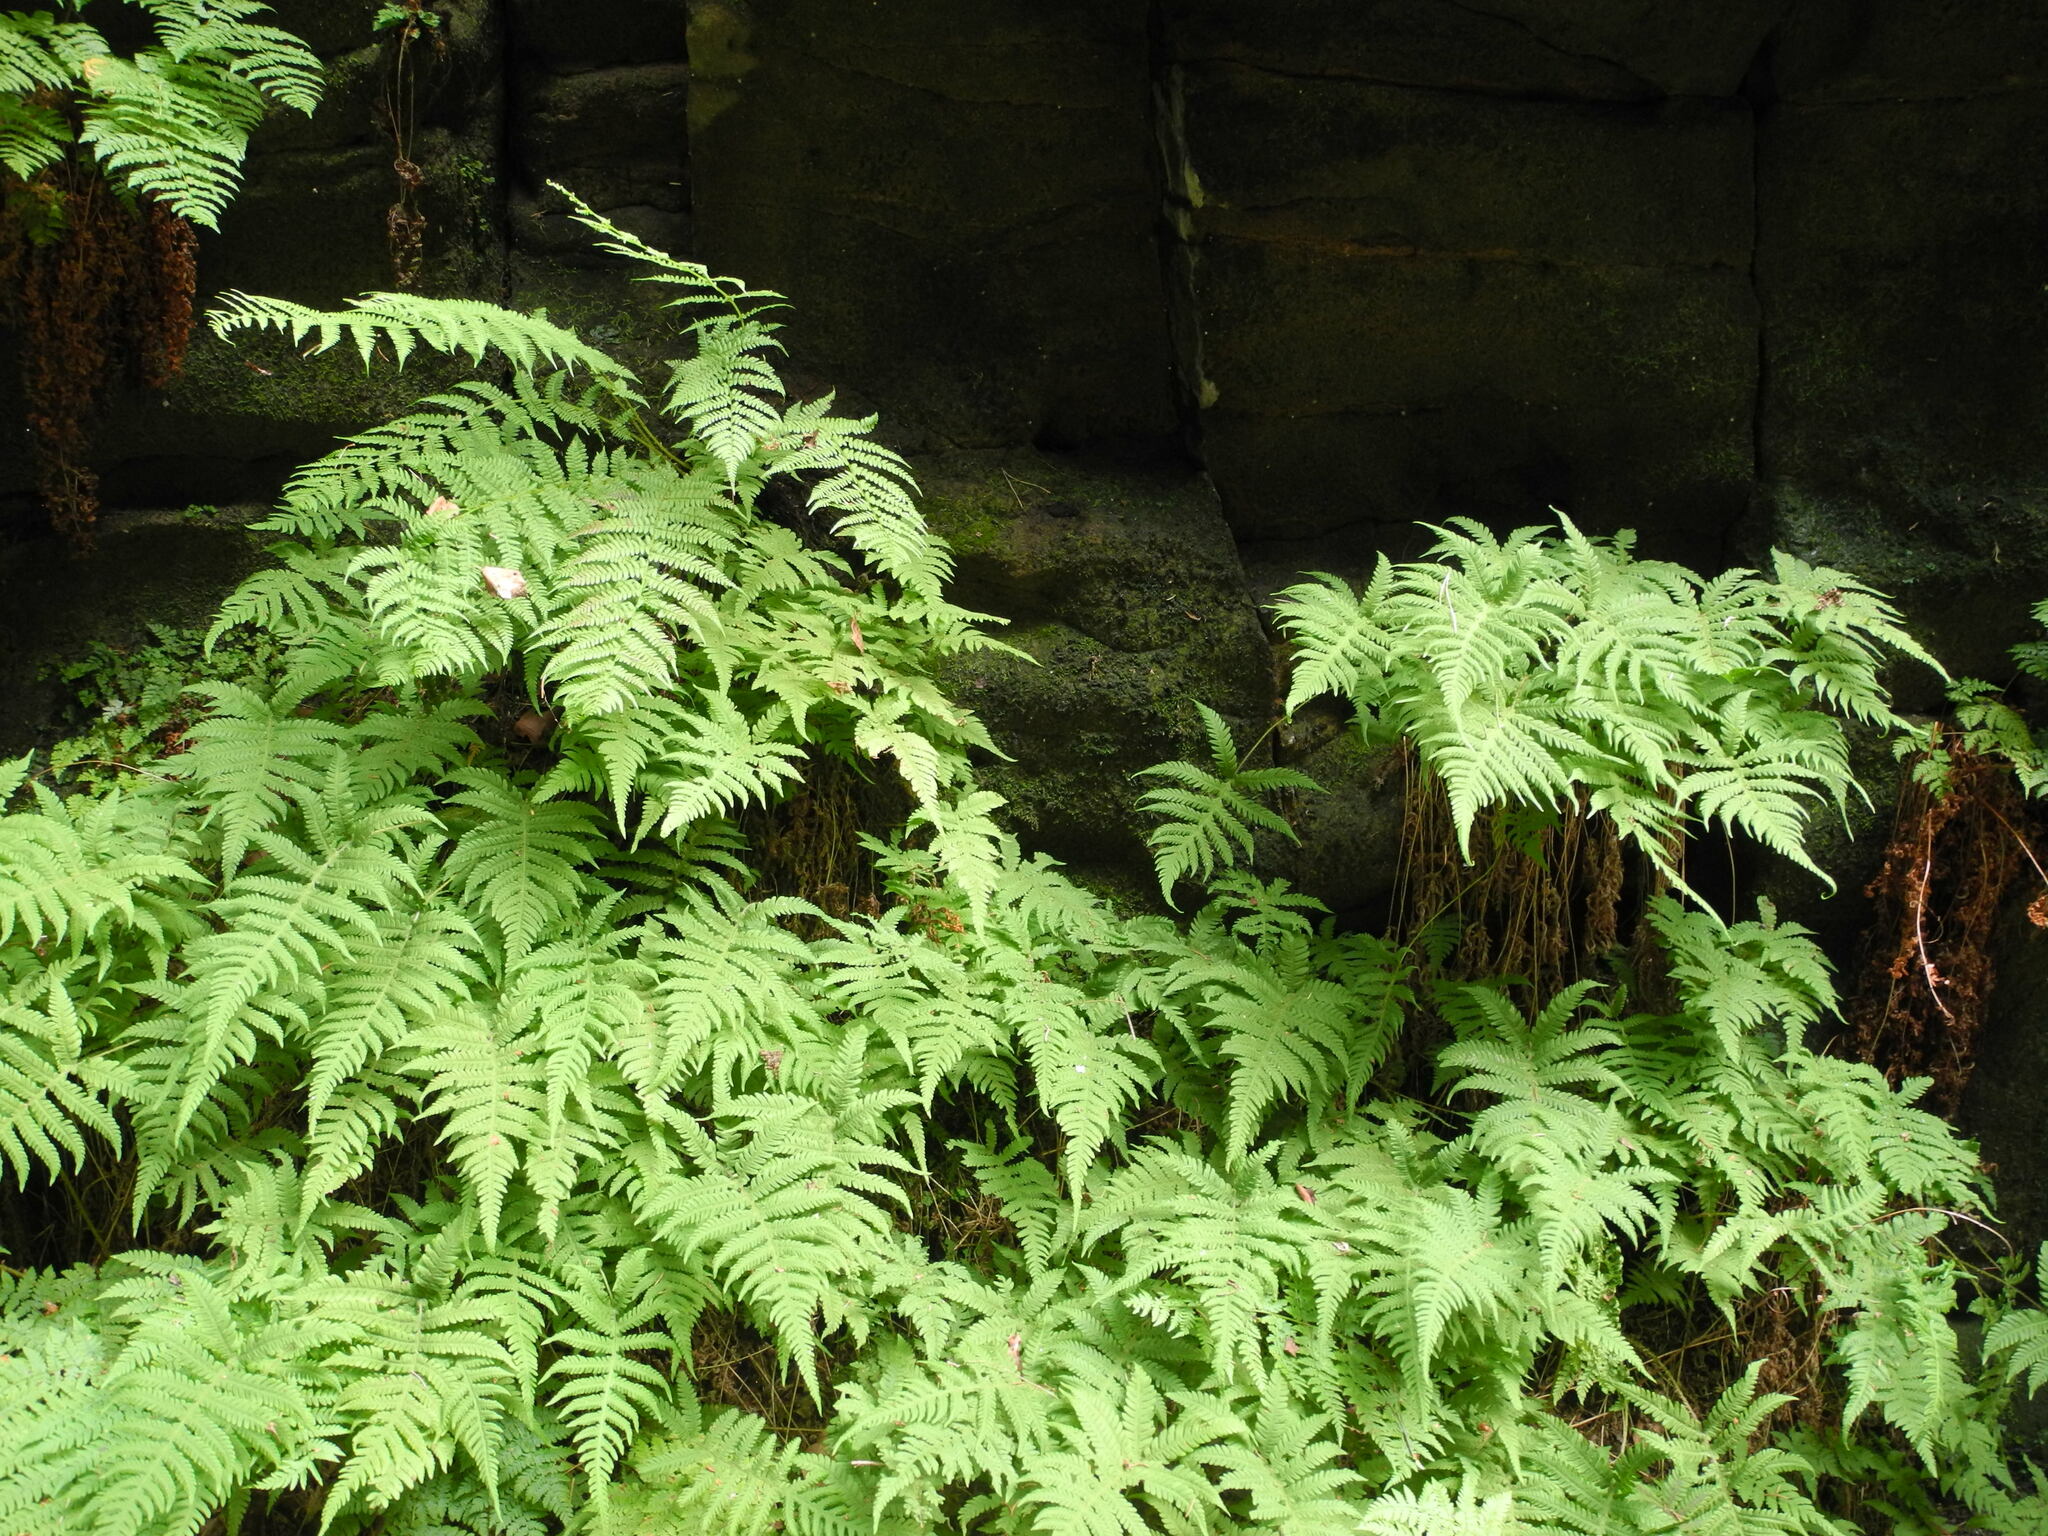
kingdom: Plantae
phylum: Tracheophyta
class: Polypodiopsida
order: Polypodiales
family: Thelypteridaceae
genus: Phegopteris
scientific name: Phegopteris connectilis
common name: Beech fern
